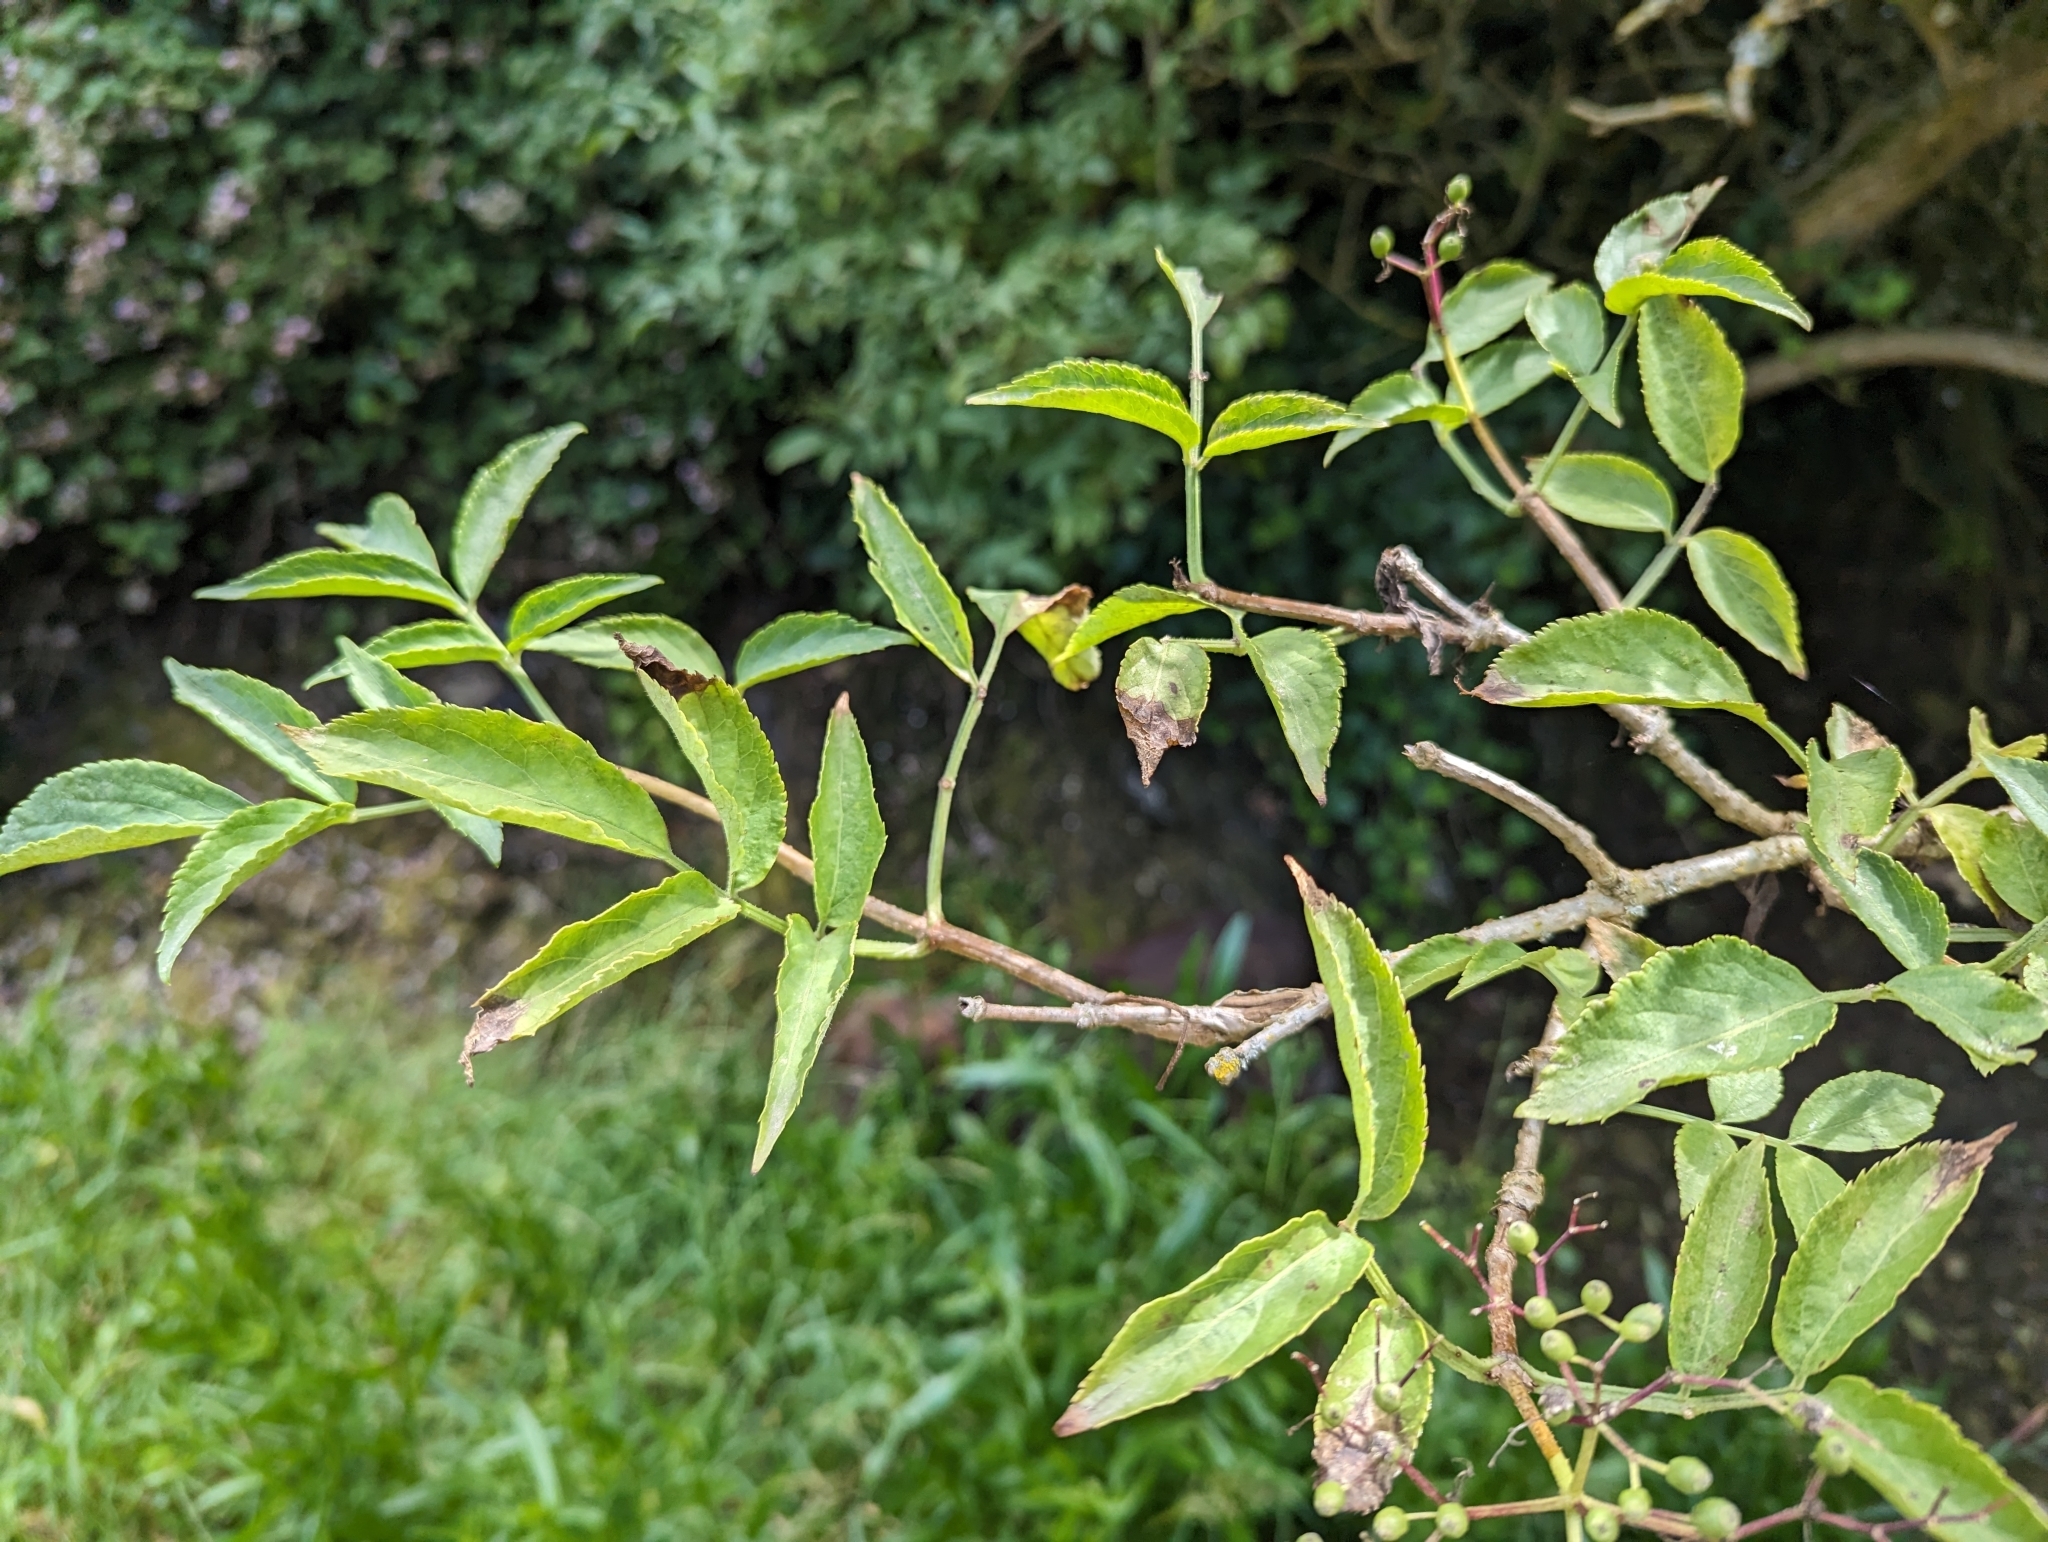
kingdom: Plantae
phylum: Tracheophyta
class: Magnoliopsida
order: Dipsacales
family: Viburnaceae
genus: Sambucus
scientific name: Sambucus nigra
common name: Elder
